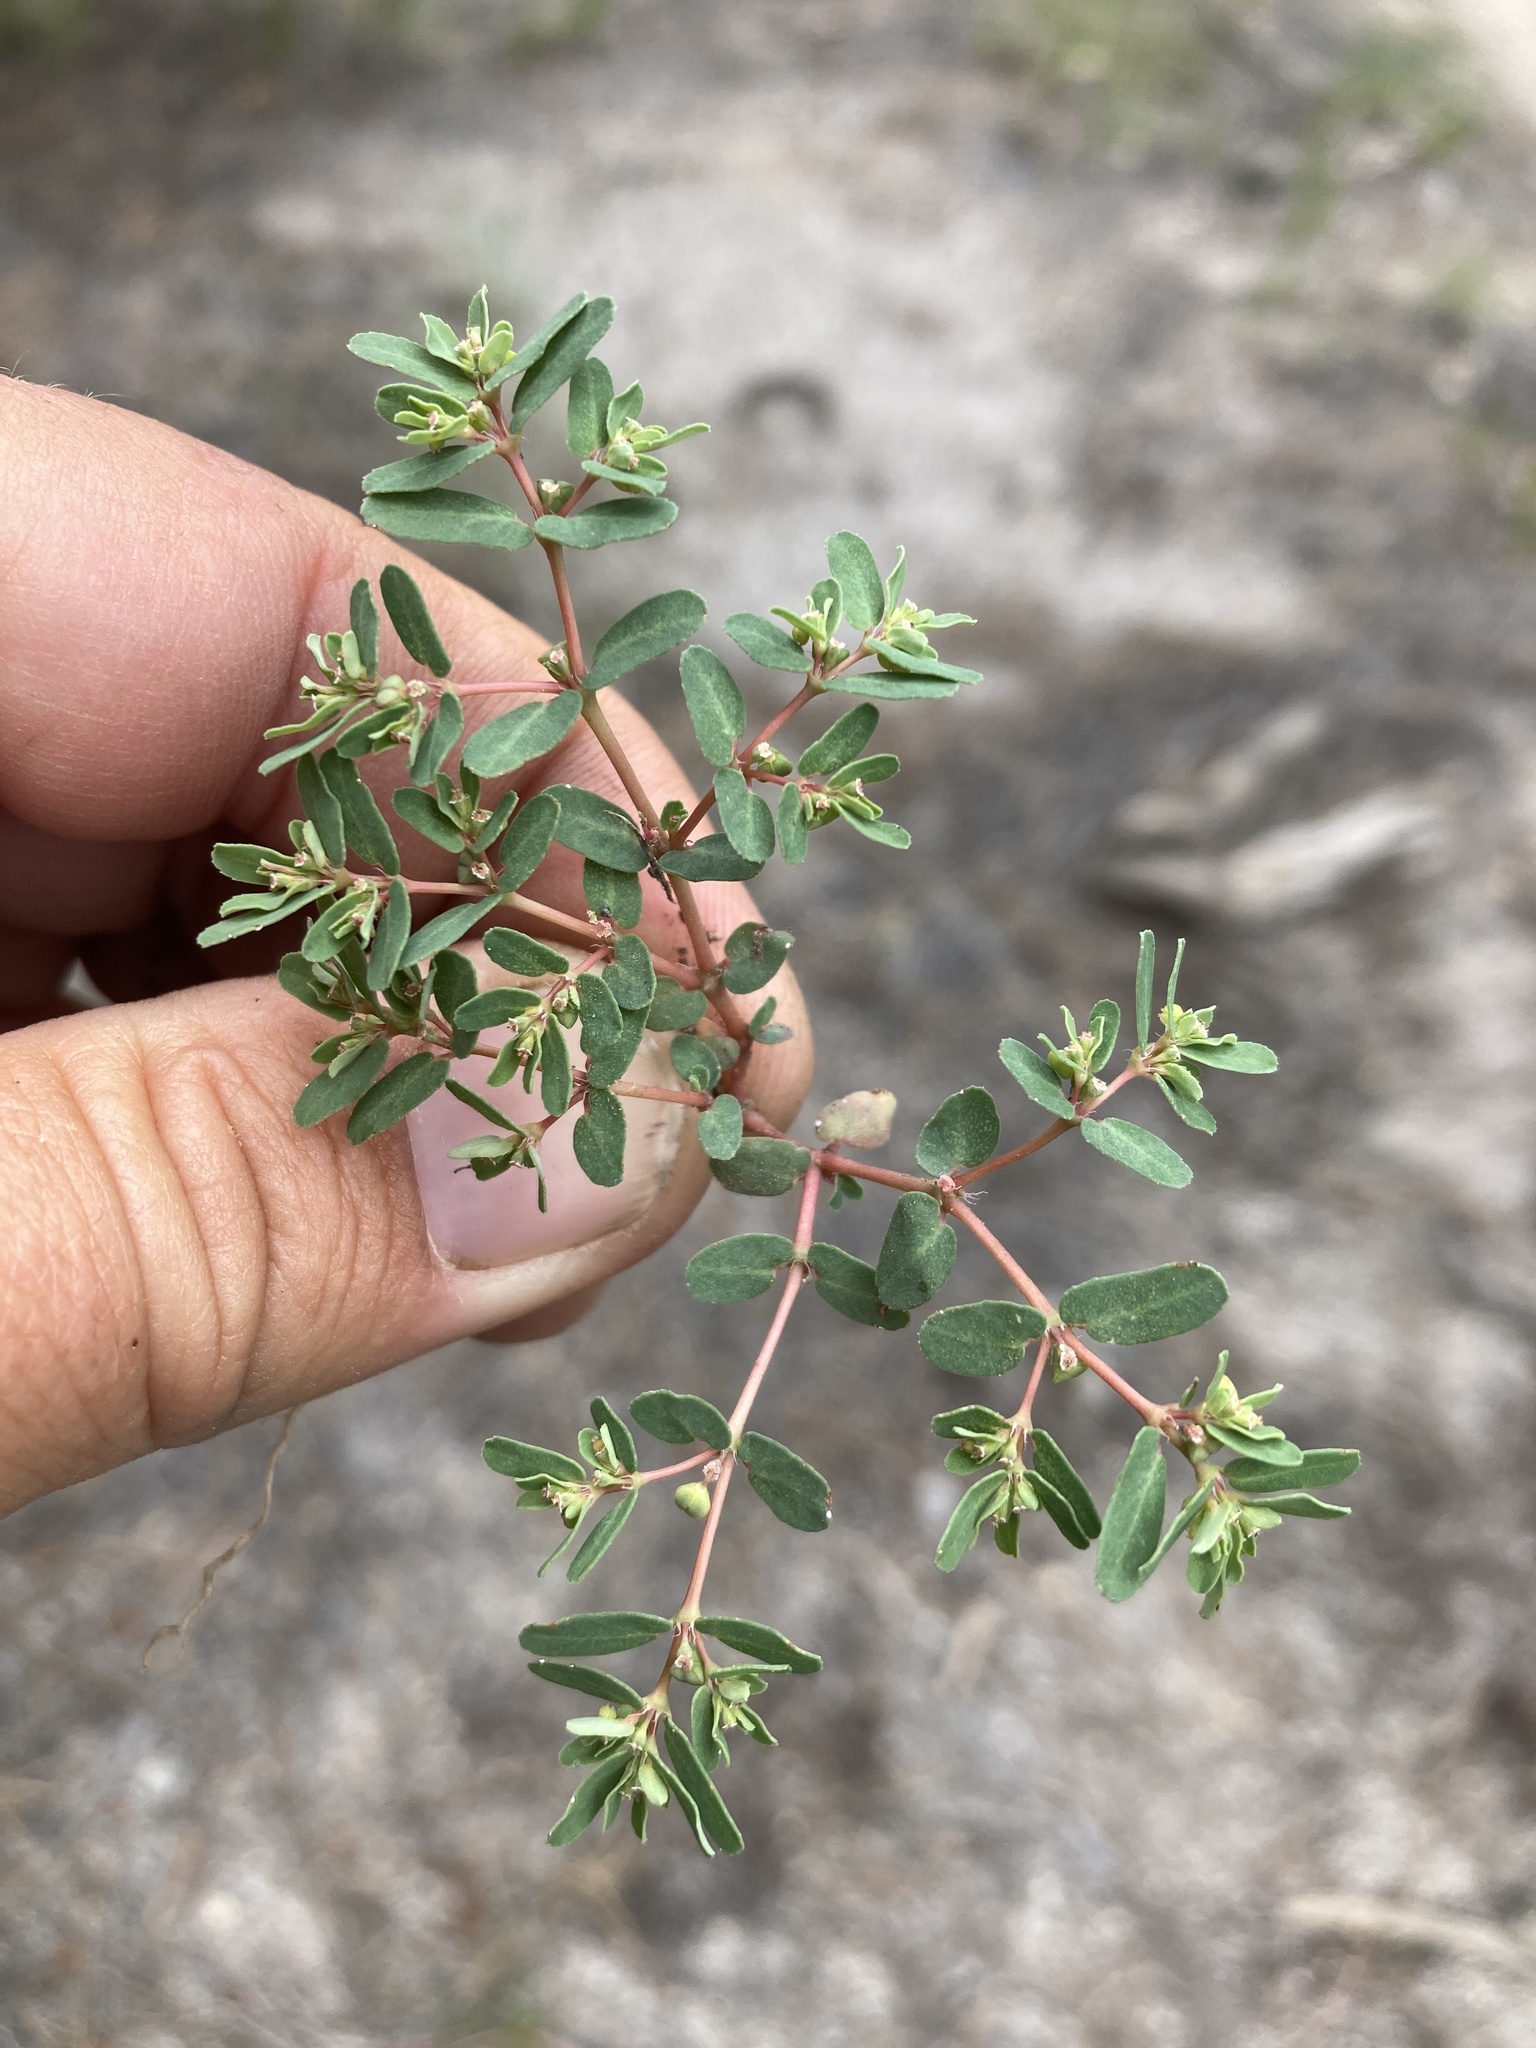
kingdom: Plantae
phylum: Tracheophyta
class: Magnoliopsida
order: Malpighiales
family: Euphorbiaceae
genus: Euphorbia
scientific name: Euphorbia glyptosperma
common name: Corrugate-seeded spurge
